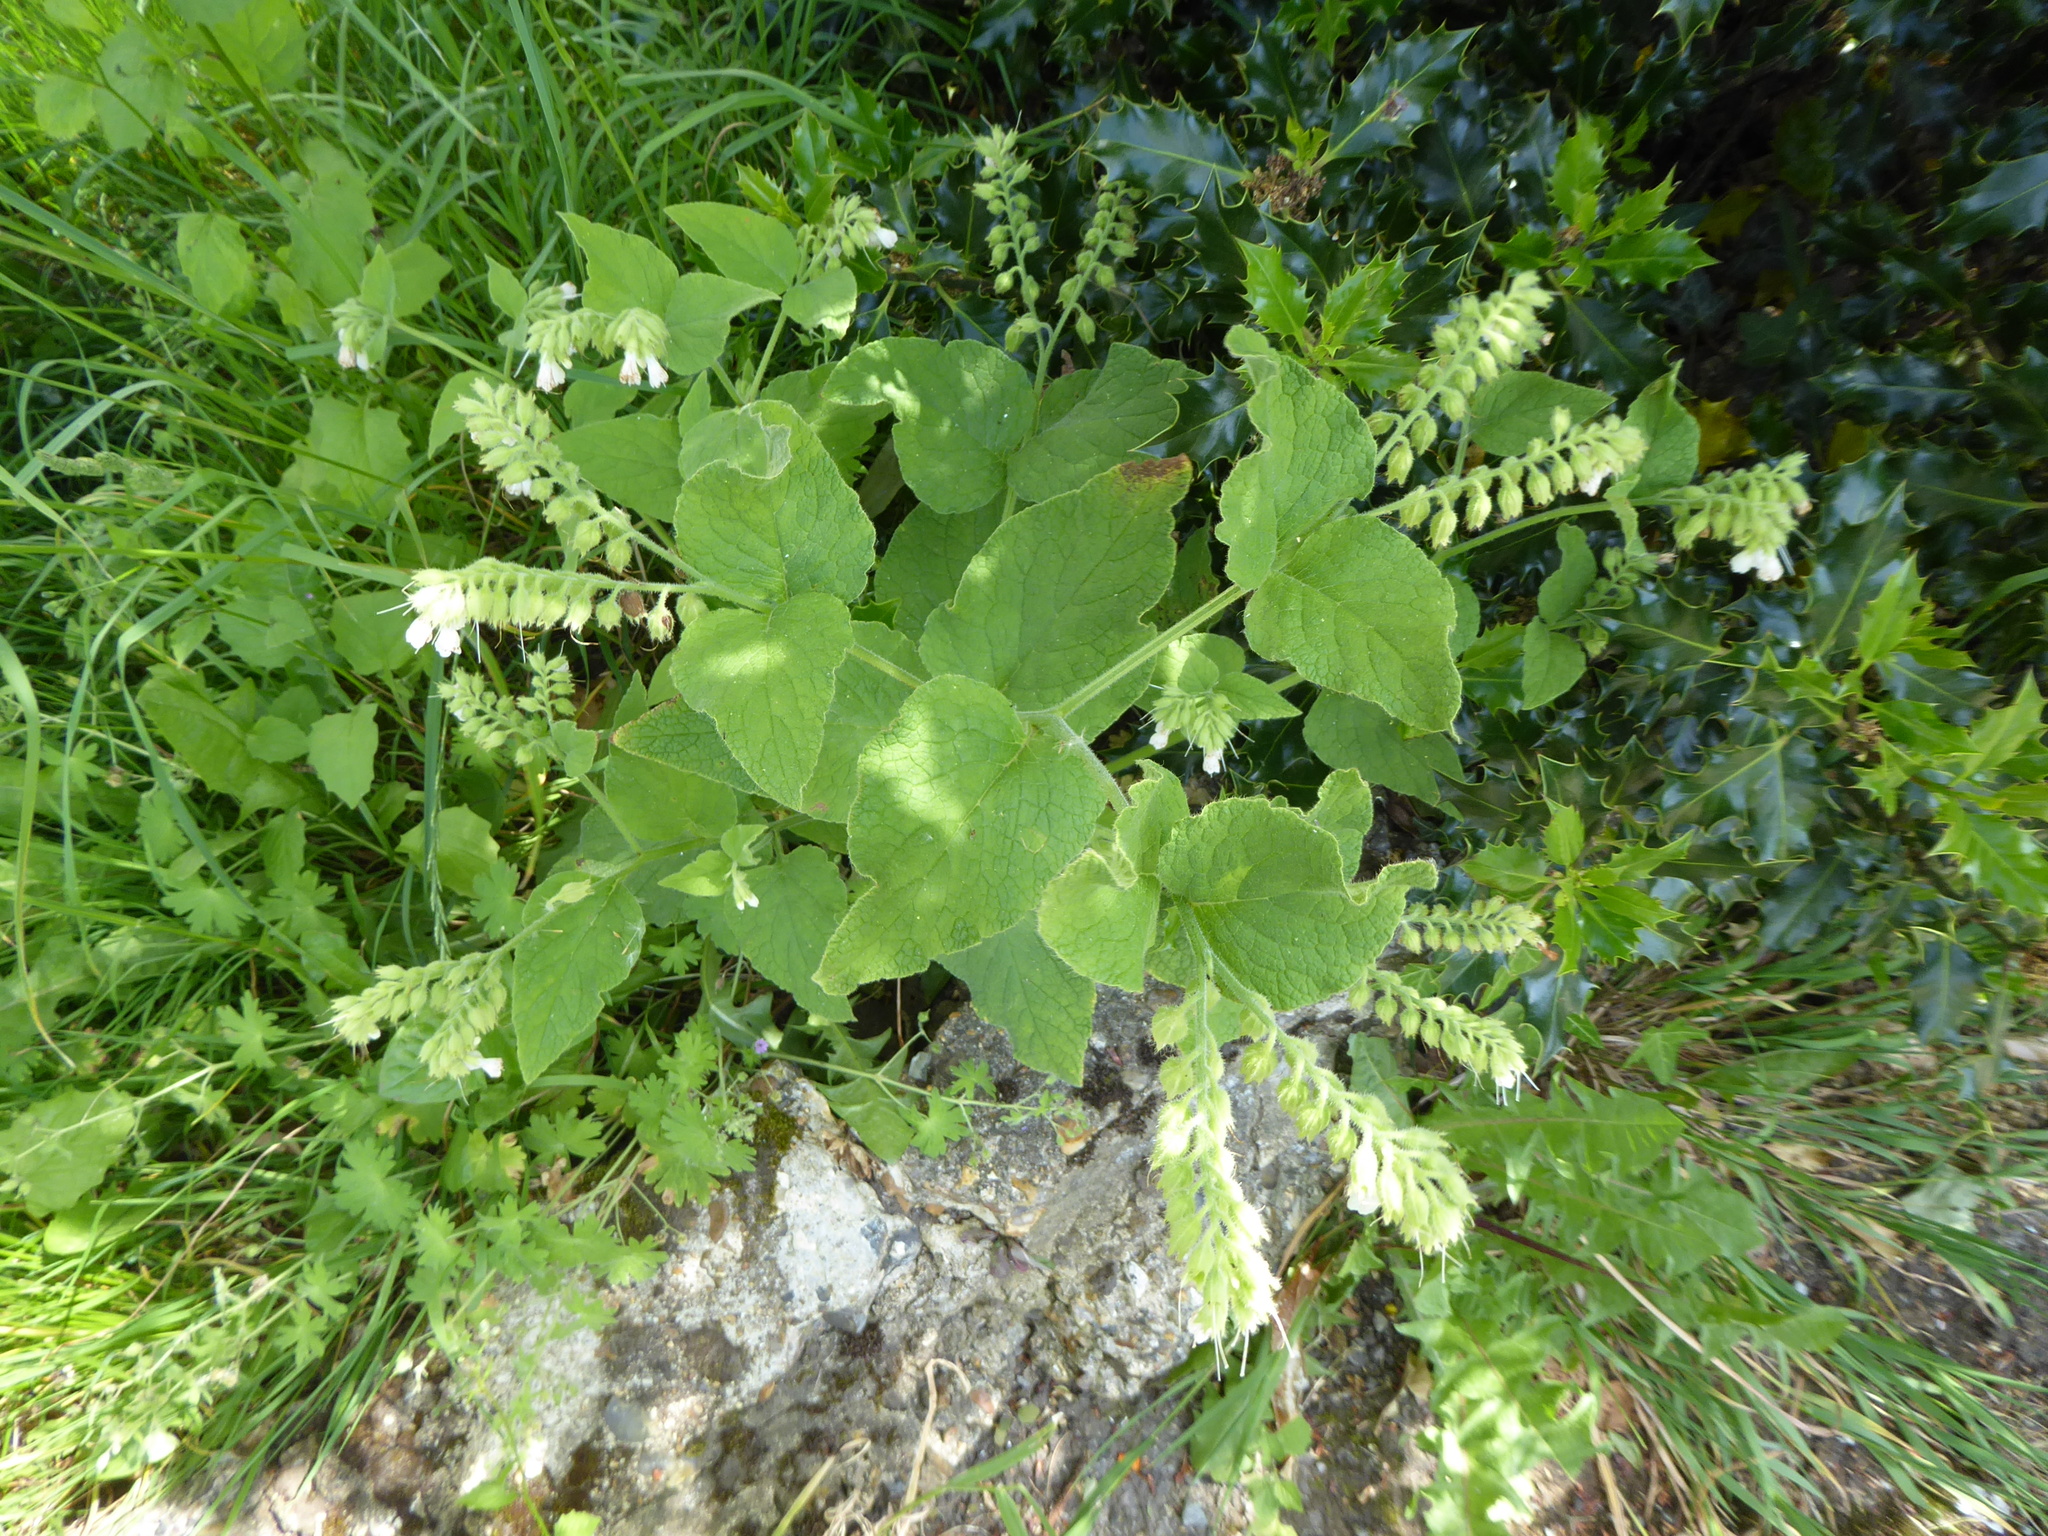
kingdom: Plantae
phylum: Tracheophyta
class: Magnoliopsida
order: Boraginales
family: Boraginaceae
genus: Symphytum
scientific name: Symphytum orientale
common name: White comfrey
